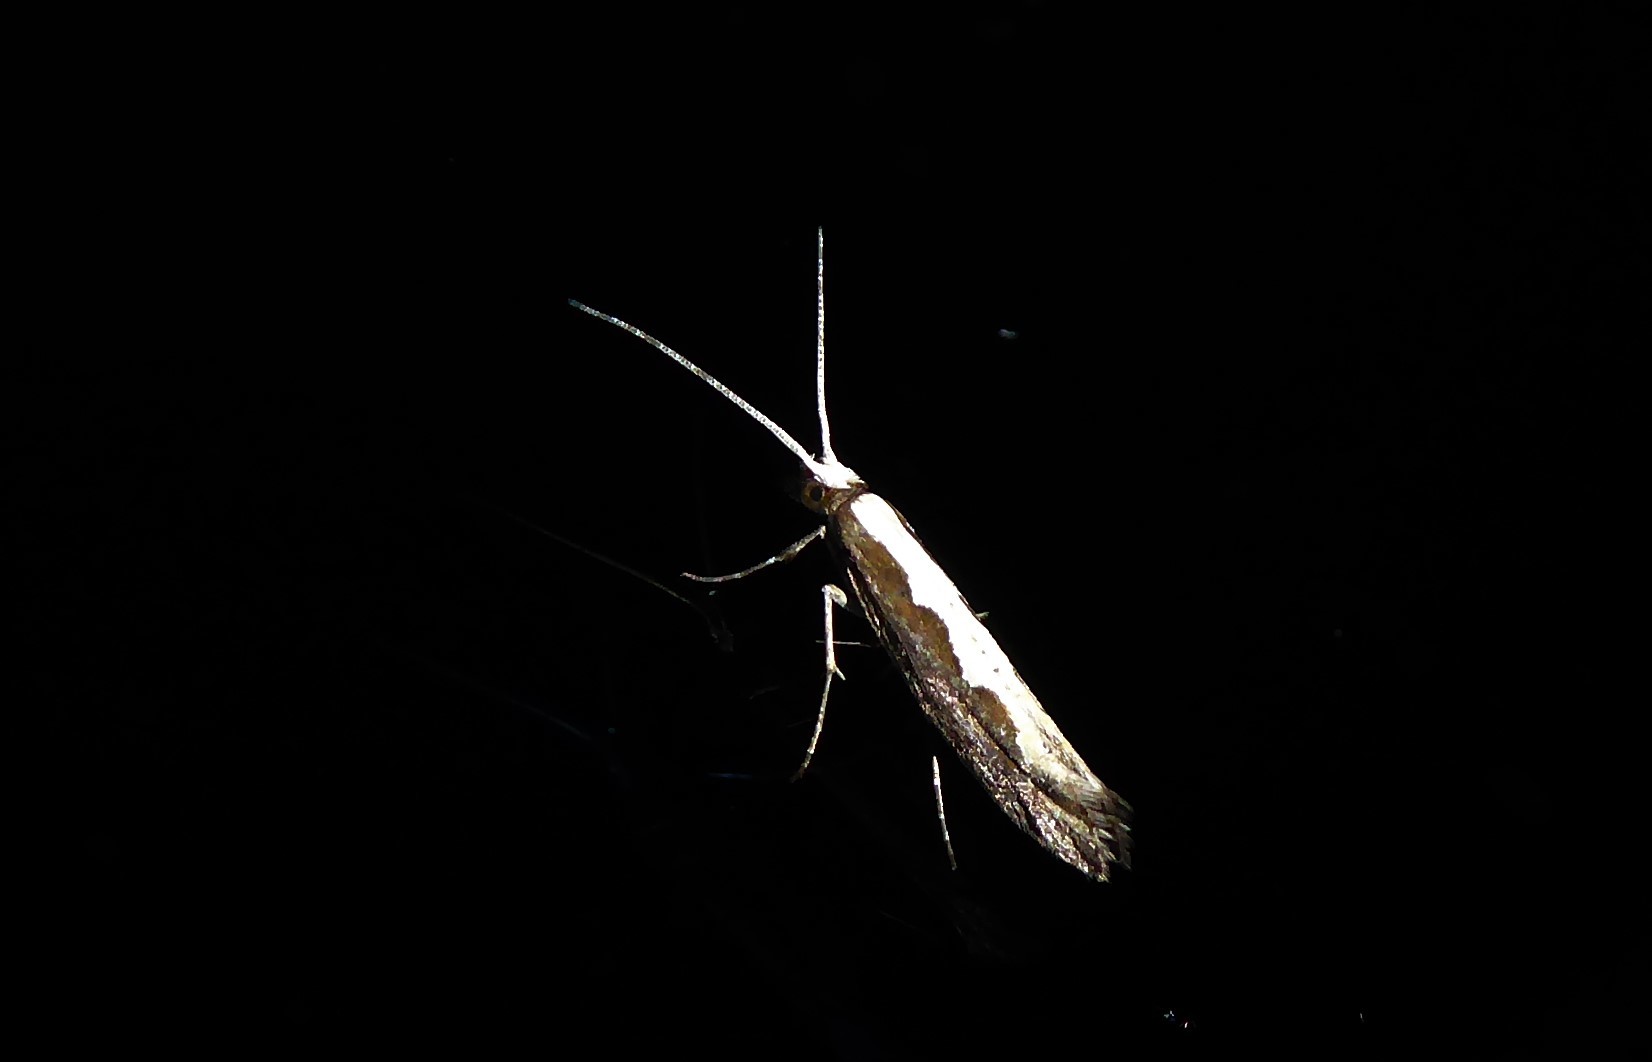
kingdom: Animalia
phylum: Arthropoda
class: Insecta
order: Lepidoptera
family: Plutellidae
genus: Plutella
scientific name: Plutella xylostella
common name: Diamond-back moth
